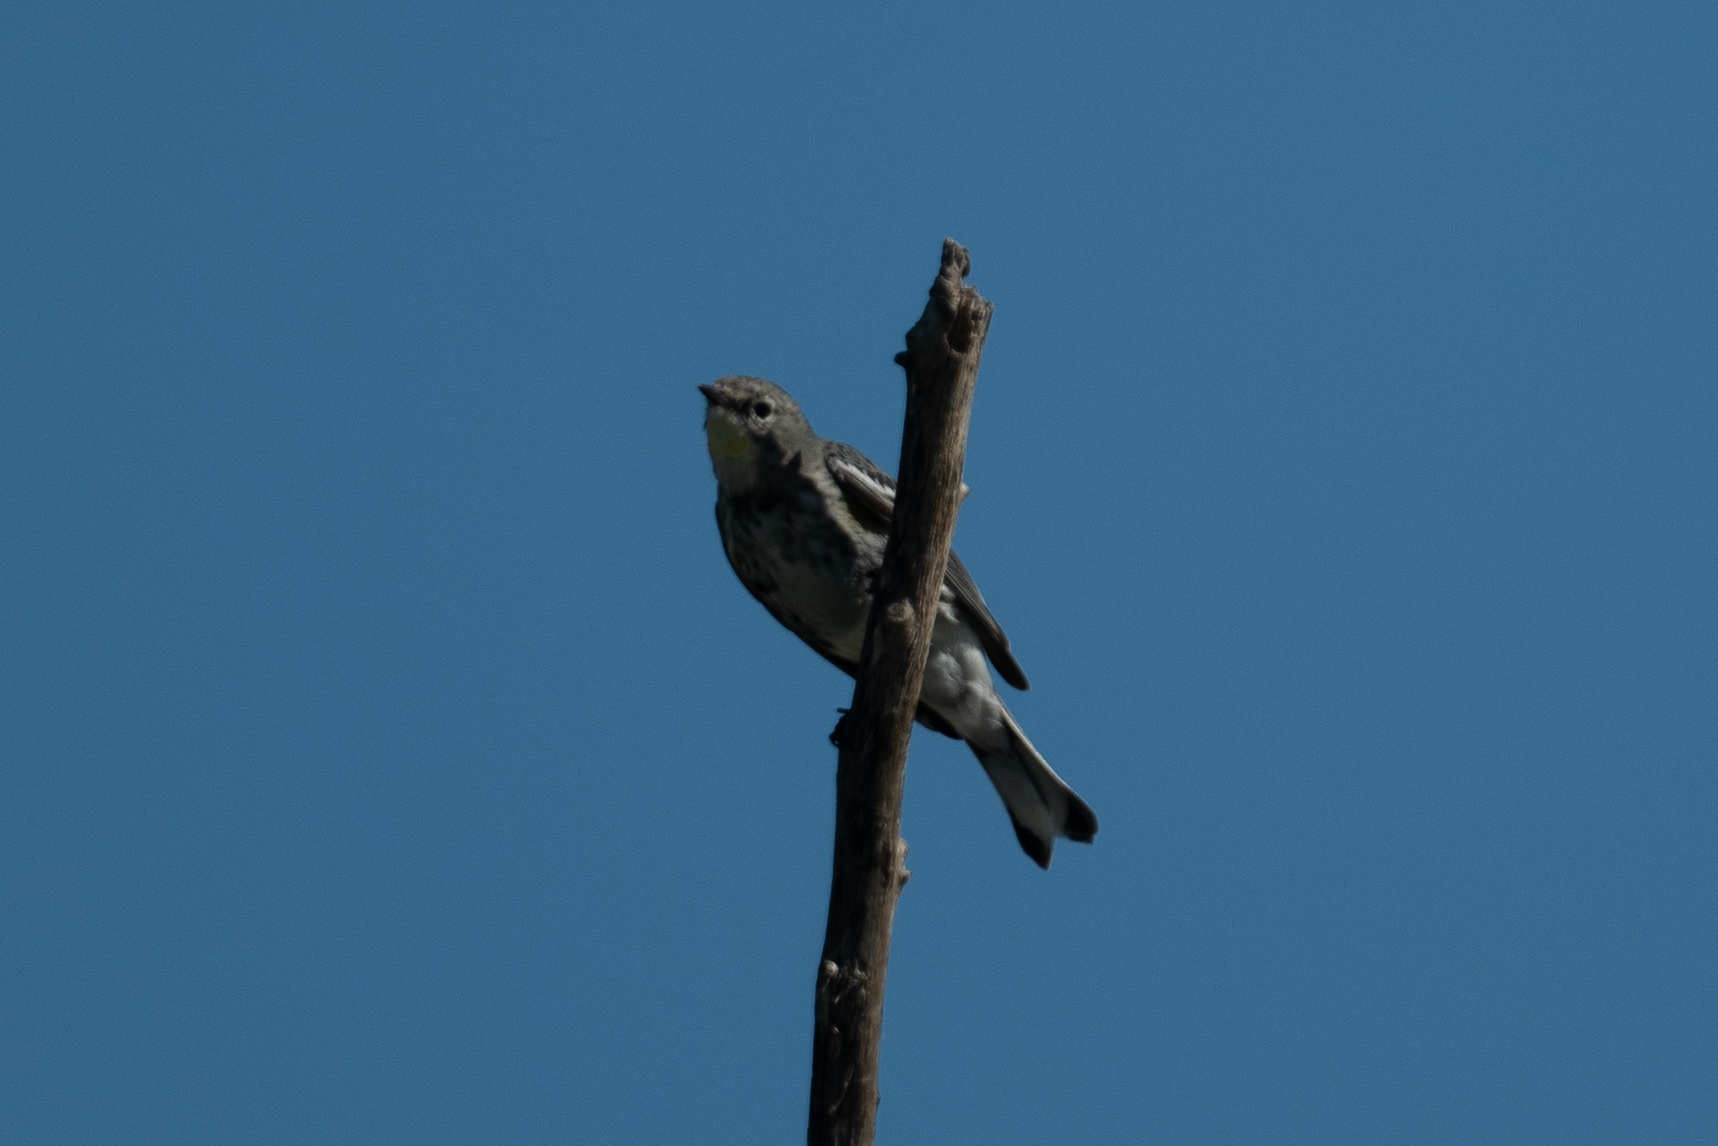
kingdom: Animalia
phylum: Chordata
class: Aves
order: Passeriformes
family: Parulidae
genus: Setophaga
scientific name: Setophaga coronata
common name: Myrtle warbler
